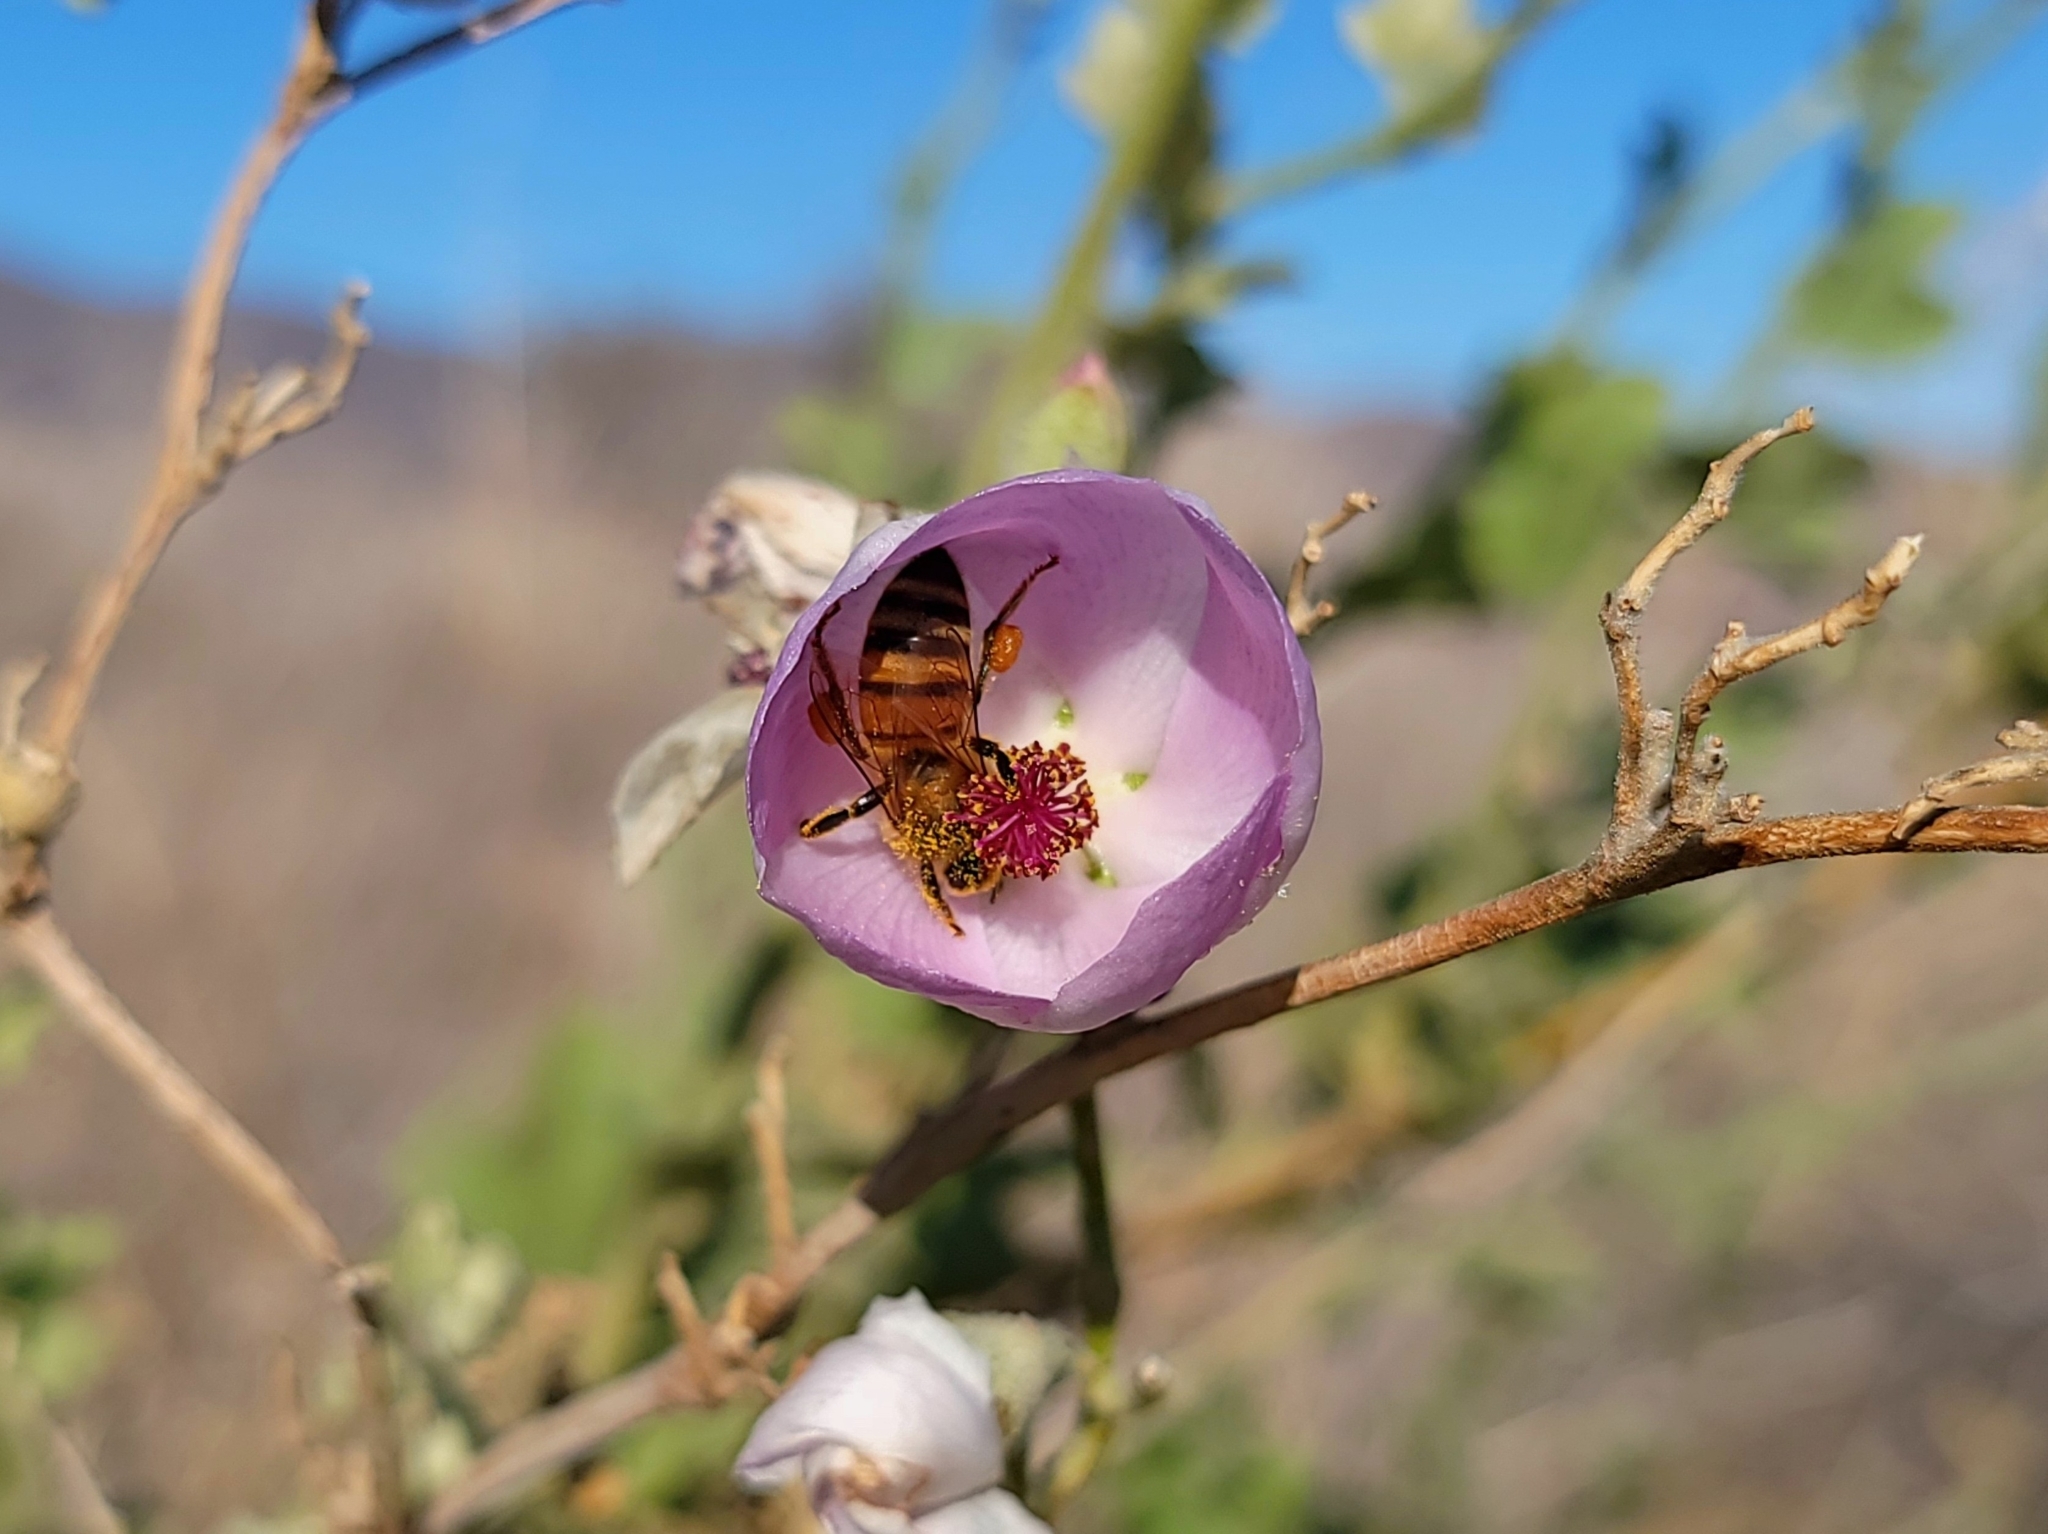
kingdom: Animalia
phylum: Arthropoda
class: Insecta
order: Hymenoptera
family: Apidae
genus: Apis
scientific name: Apis mellifera
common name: Honey bee
